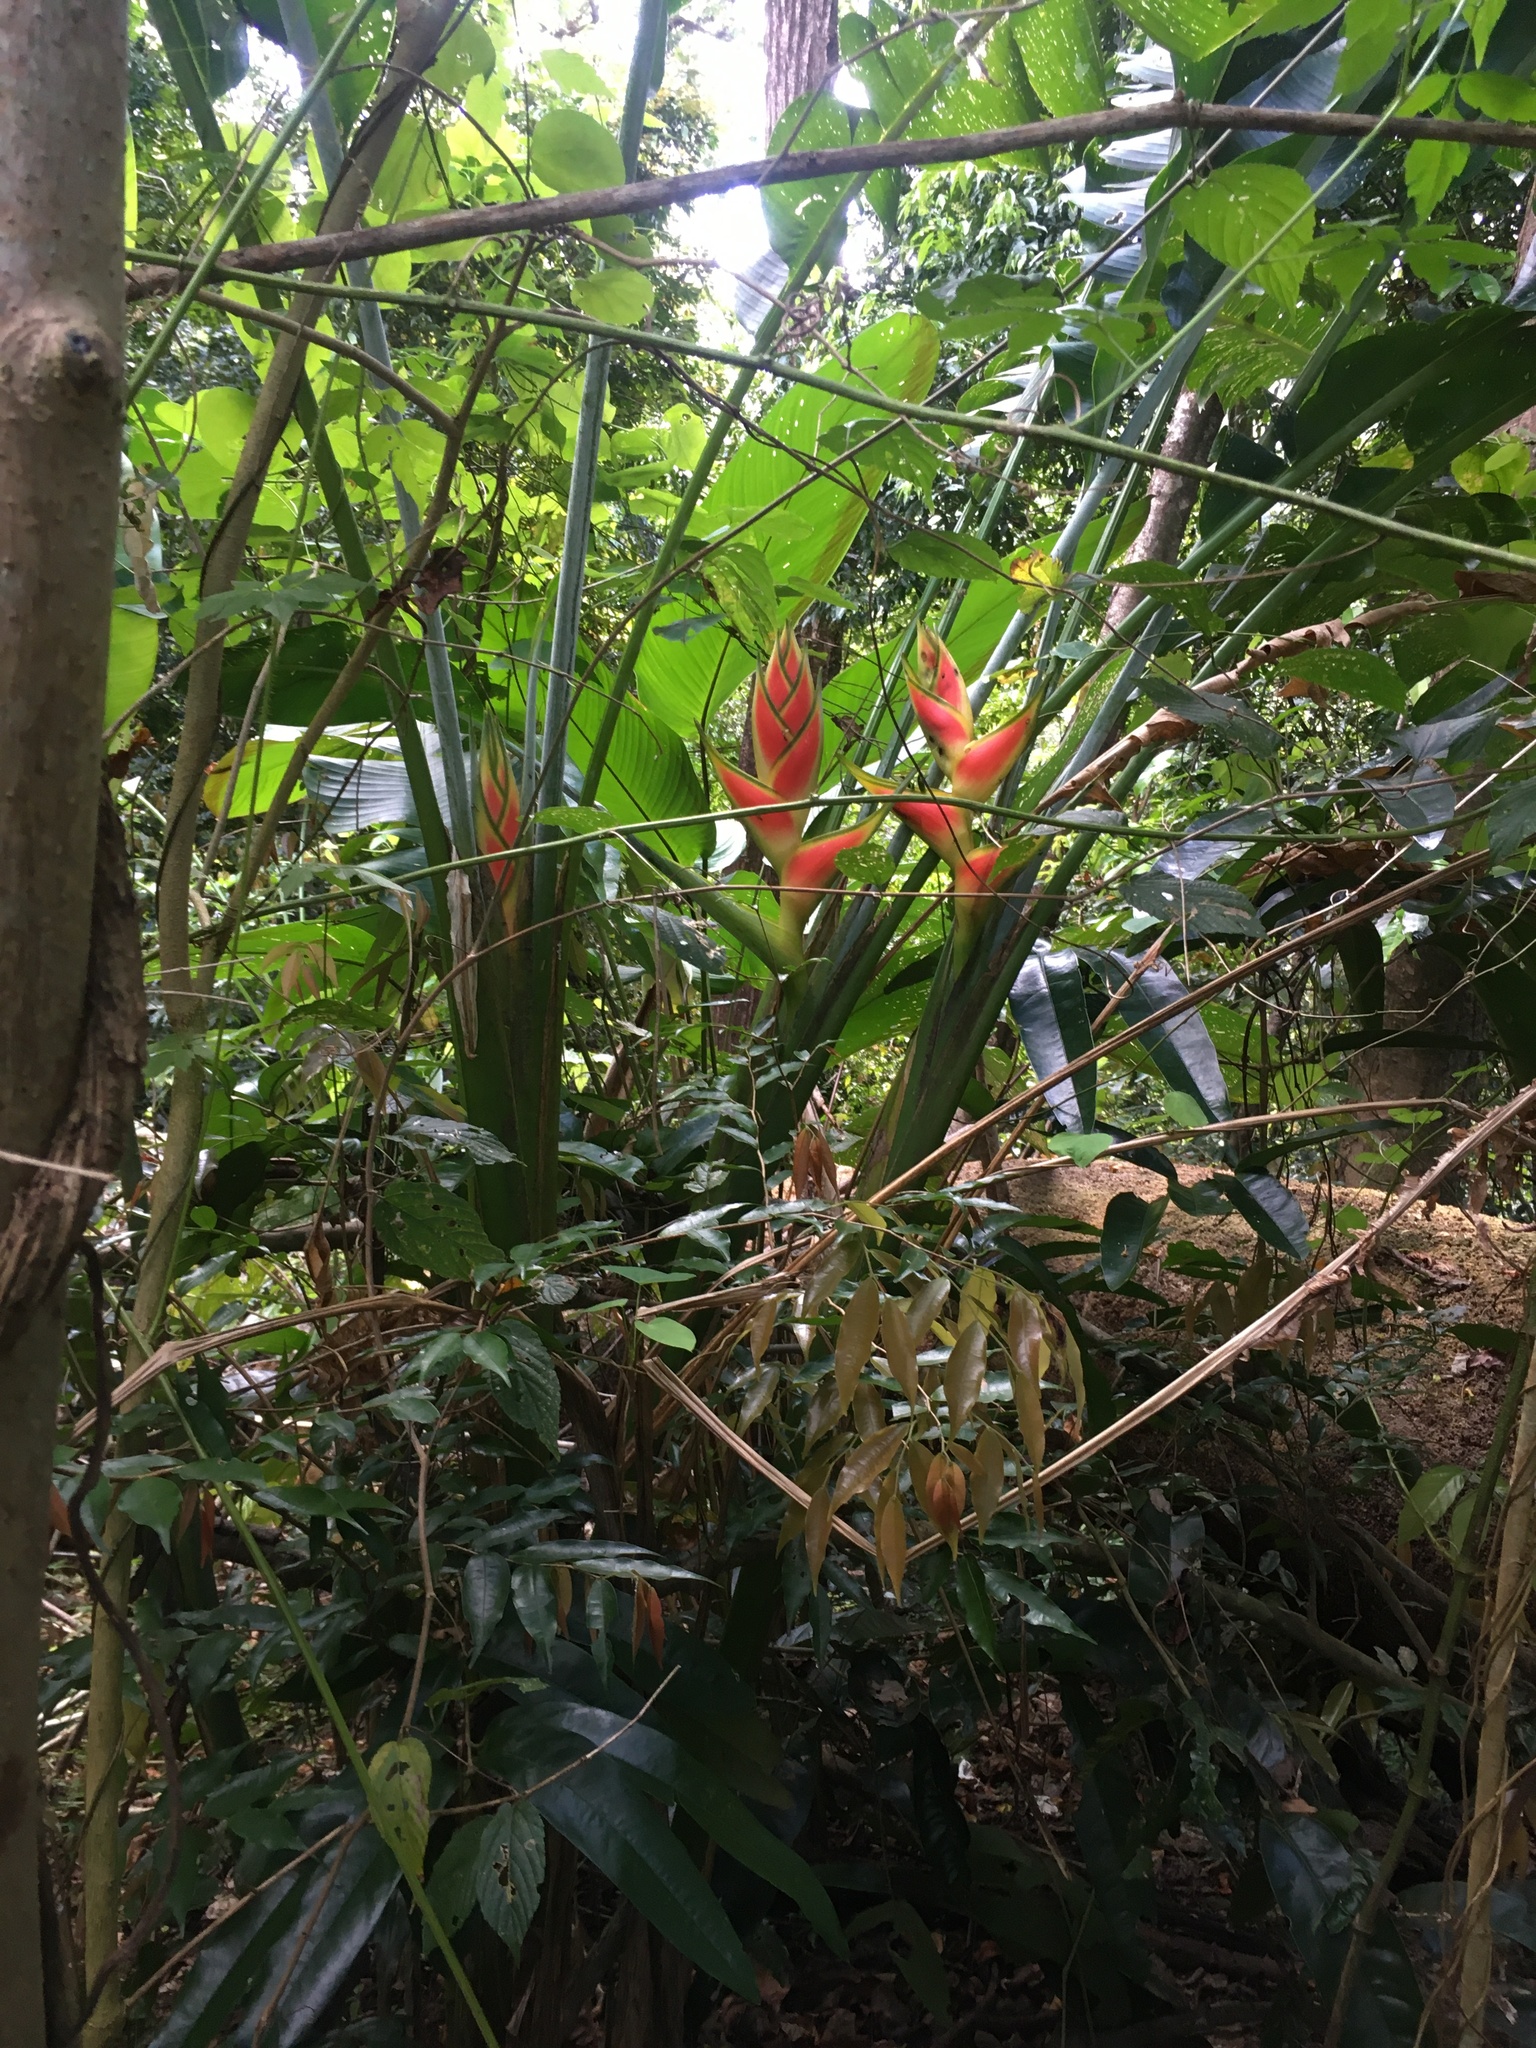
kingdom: Plantae
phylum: Tracheophyta
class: Liliopsida
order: Zingiberales
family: Heliconiaceae
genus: Heliconia
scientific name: Heliconia wagneriana
